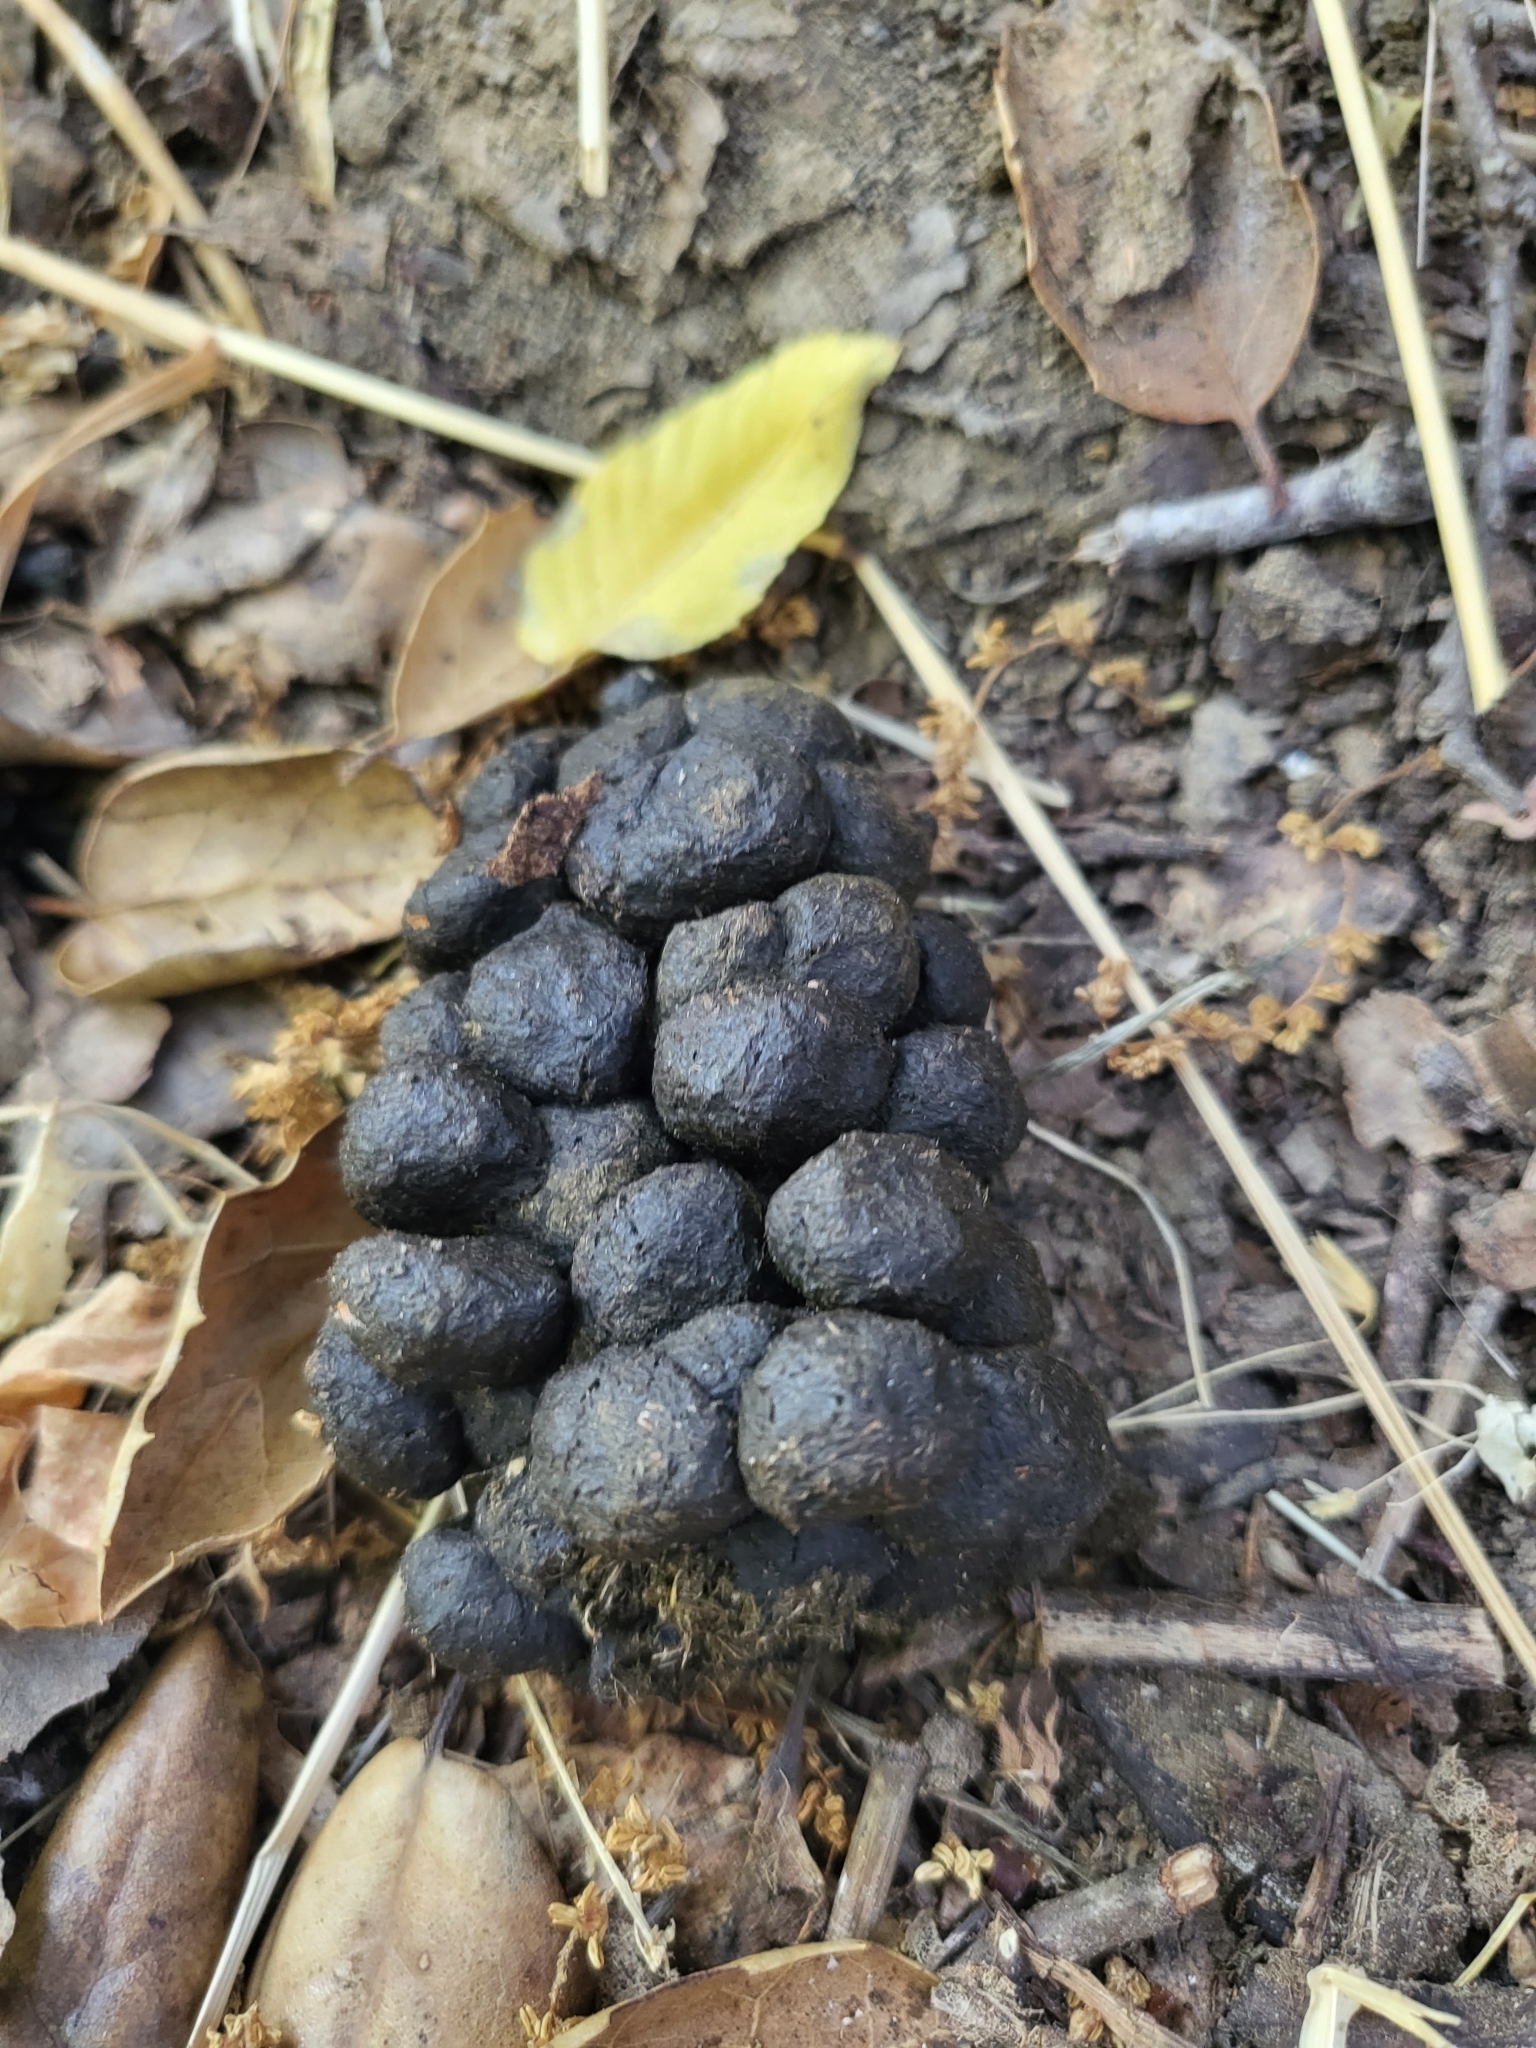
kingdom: Animalia
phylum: Chordata
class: Mammalia
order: Artiodactyla
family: Cervidae
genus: Odocoileus
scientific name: Odocoileus hemionus
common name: Mule deer
